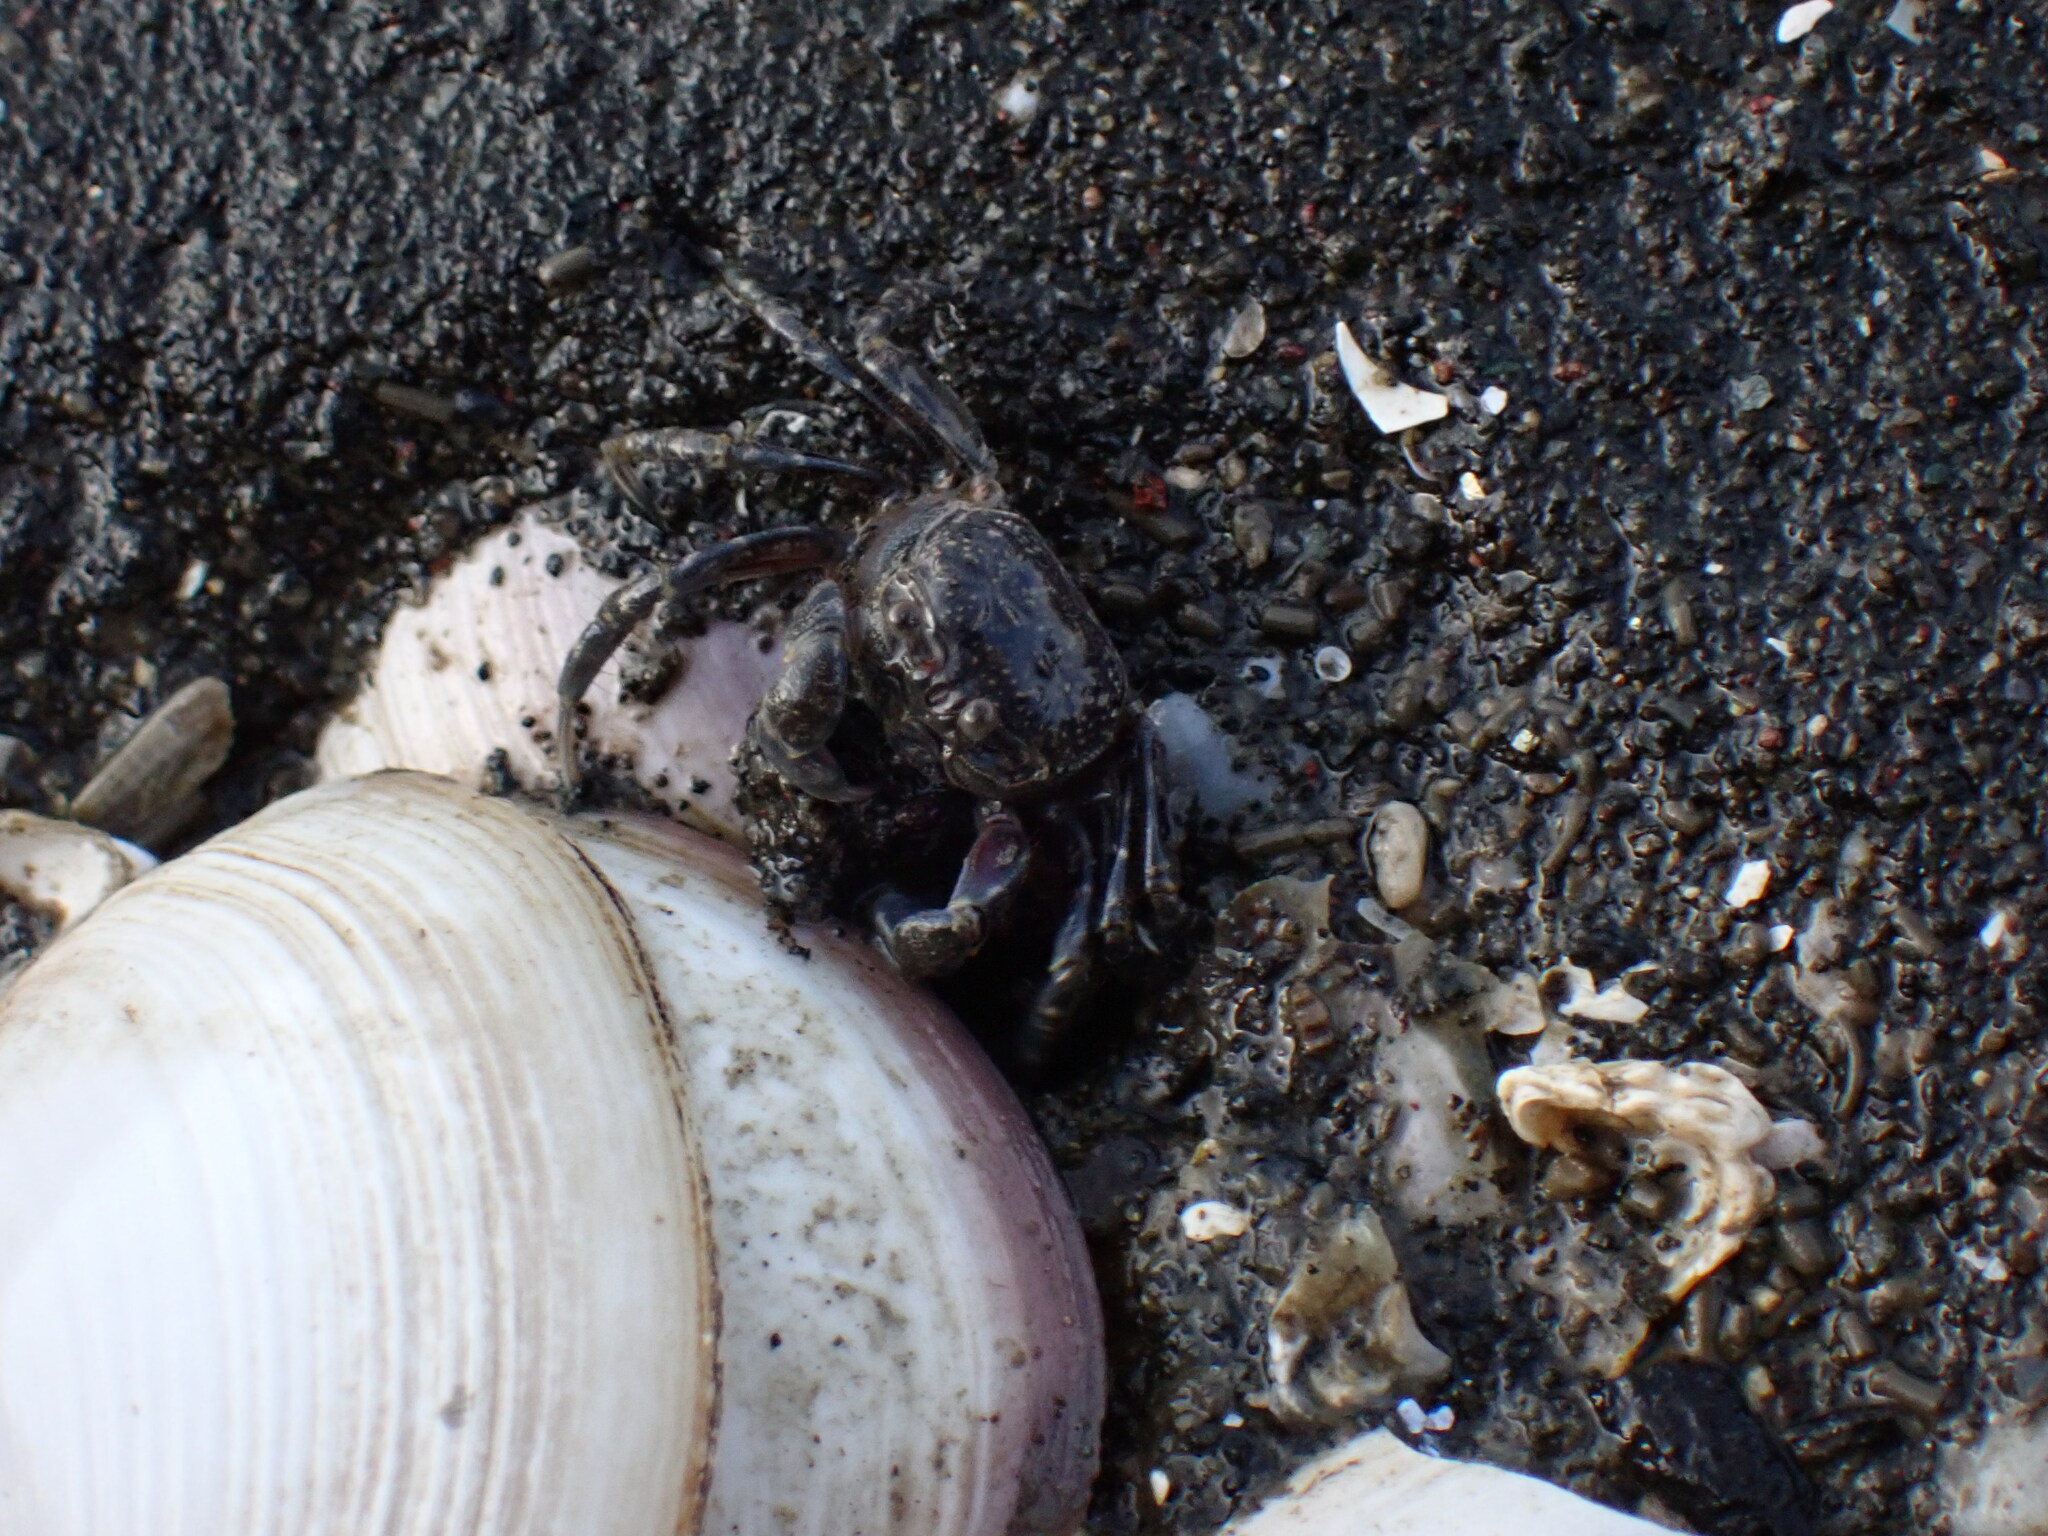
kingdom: Animalia
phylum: Arthropoda
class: Malacostraca
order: Decapoda
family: Dotillidae
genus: Scopimera
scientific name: Scopimera globosa
